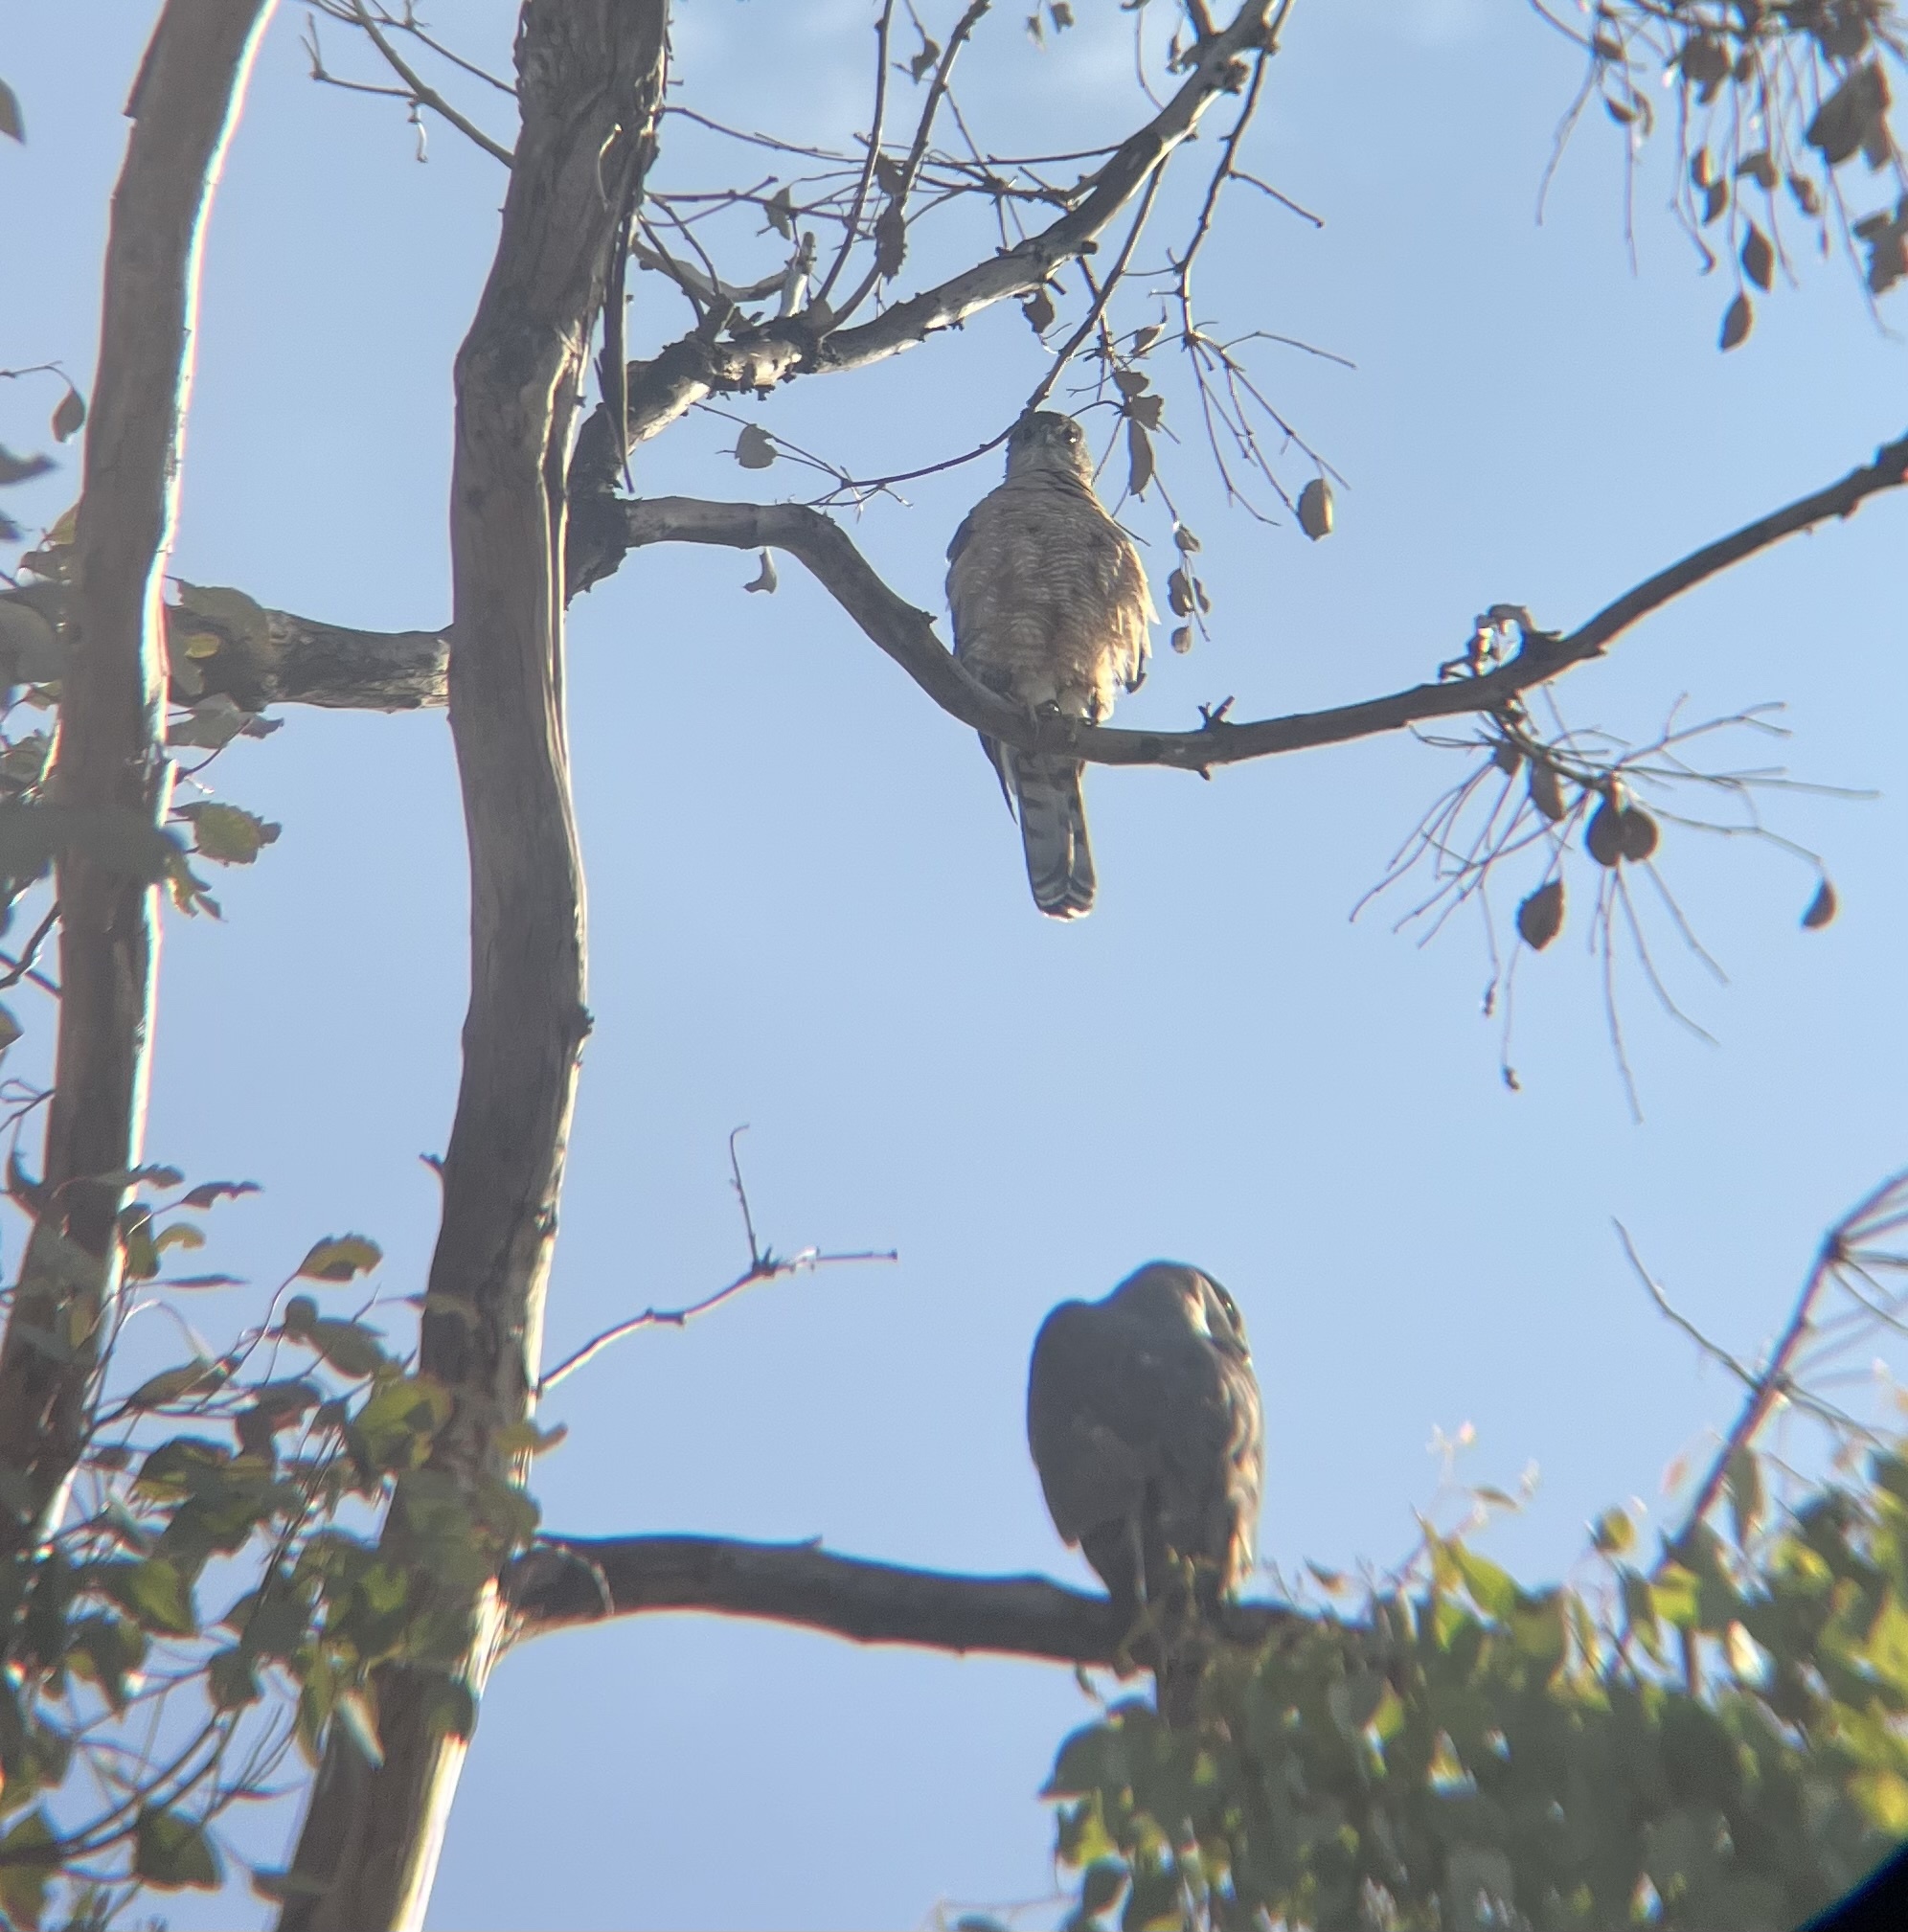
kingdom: Animalia
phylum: Chordata
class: Aves
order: Accipitriformes
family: Accipitridae
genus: Accipiter
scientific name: Accipiter cooperii
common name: Cooper's hawk
